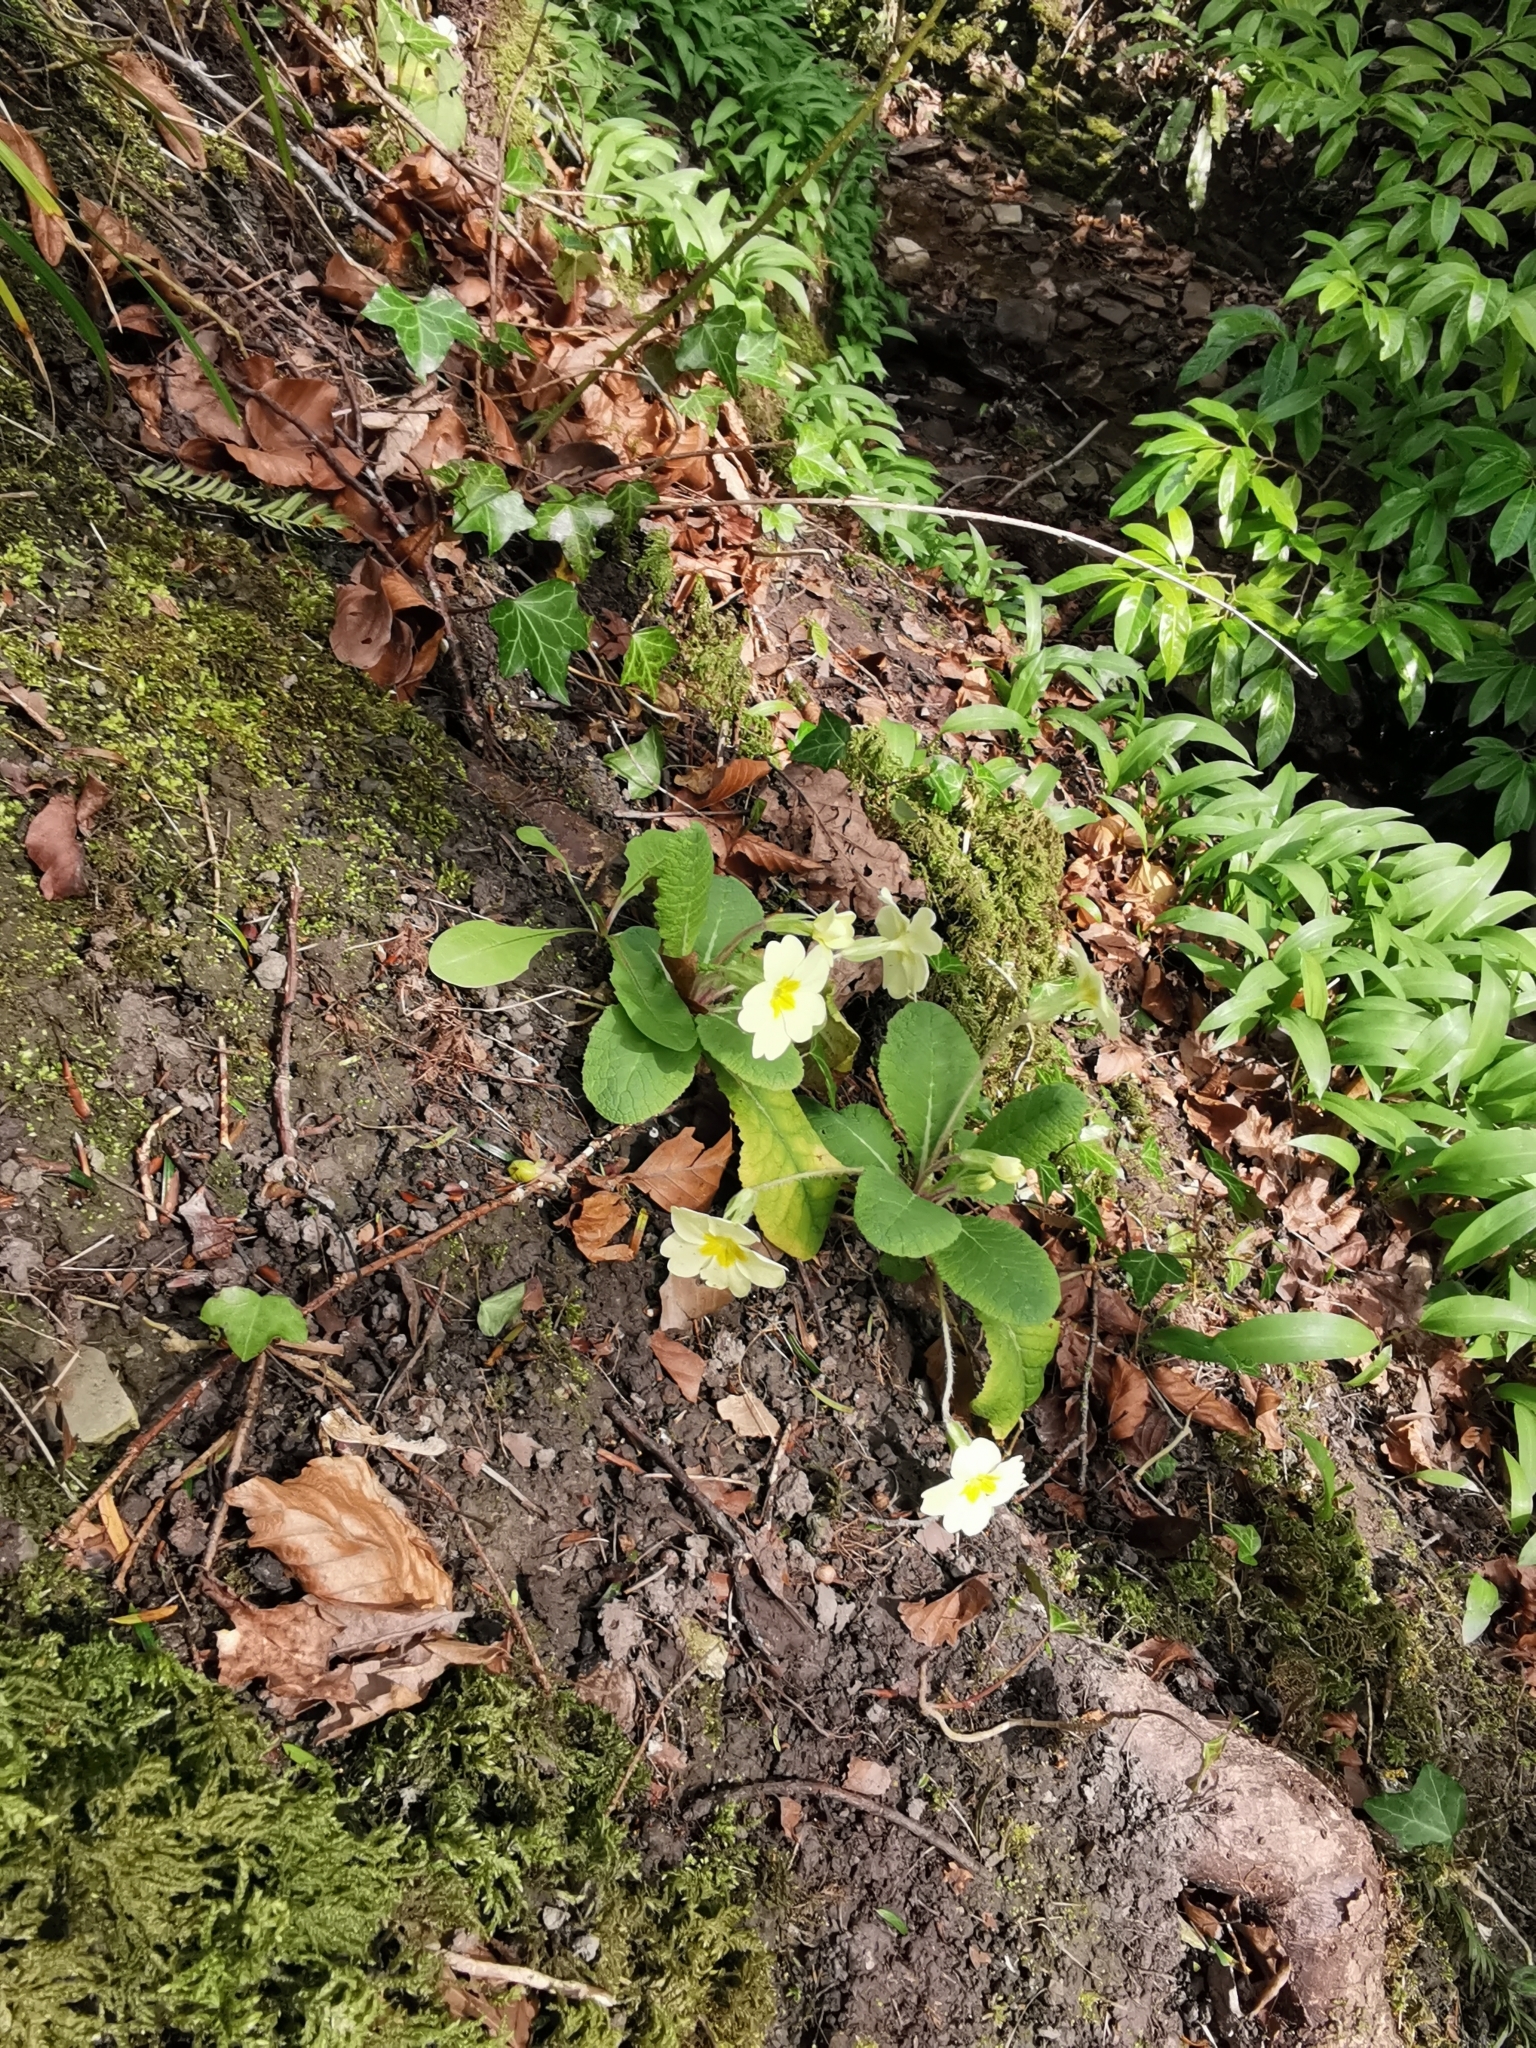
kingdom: Plantae
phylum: Tracheophyta
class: Magnoliopsida
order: Ericales
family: Primulaceae
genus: Primula
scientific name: Primula vulgaris
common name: Primrose
